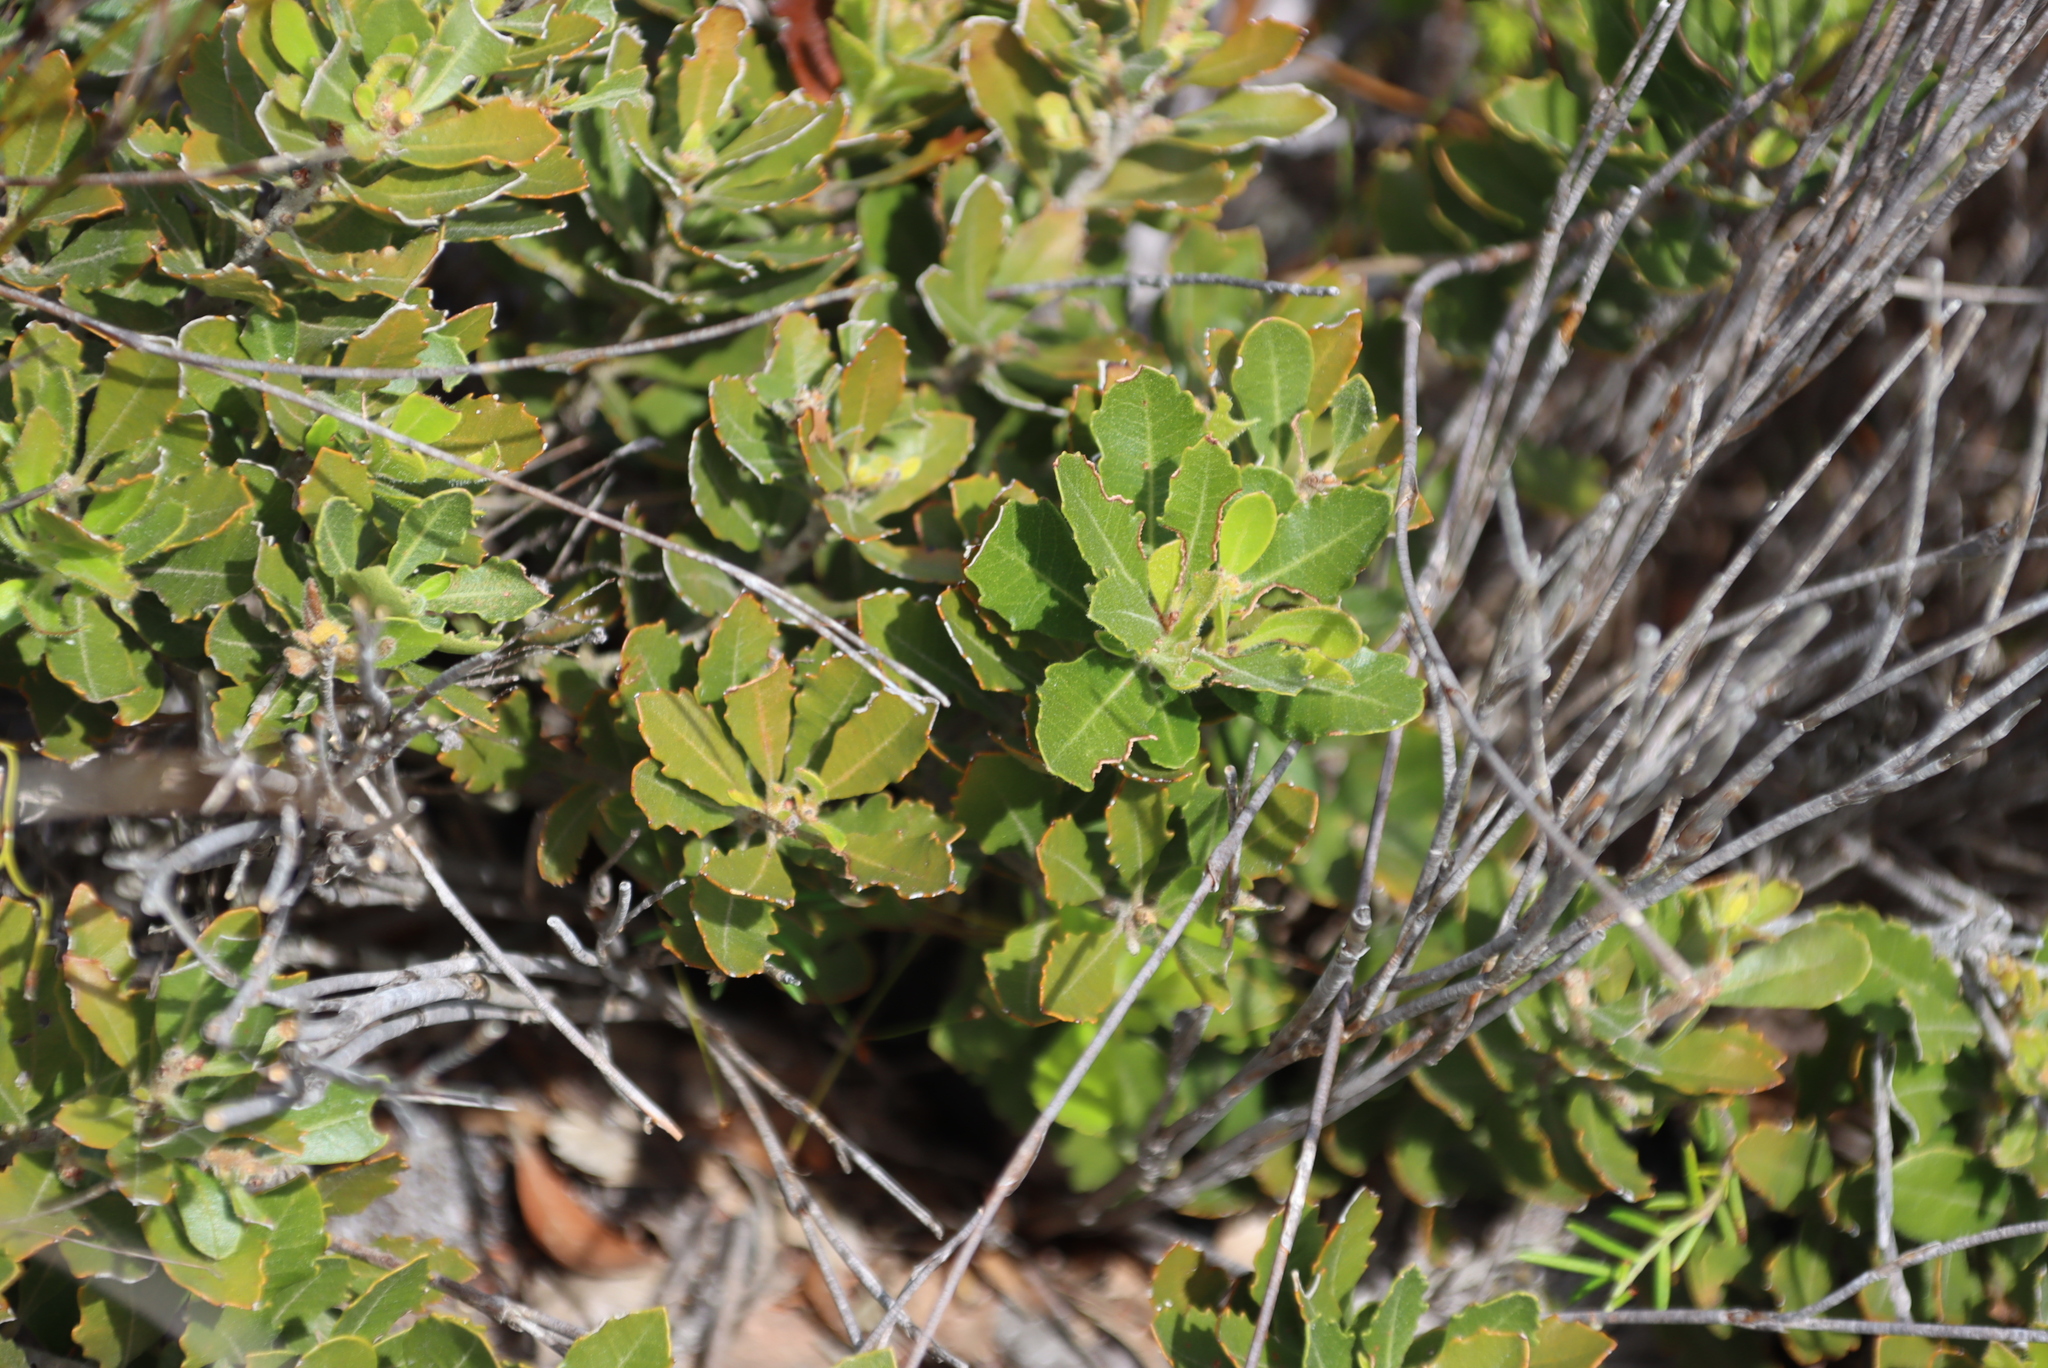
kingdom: Plantae
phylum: Tracheophyta
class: Magnoliopsida
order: Fagales
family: Myricaceae
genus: Morella
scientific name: Morella diversifolia
